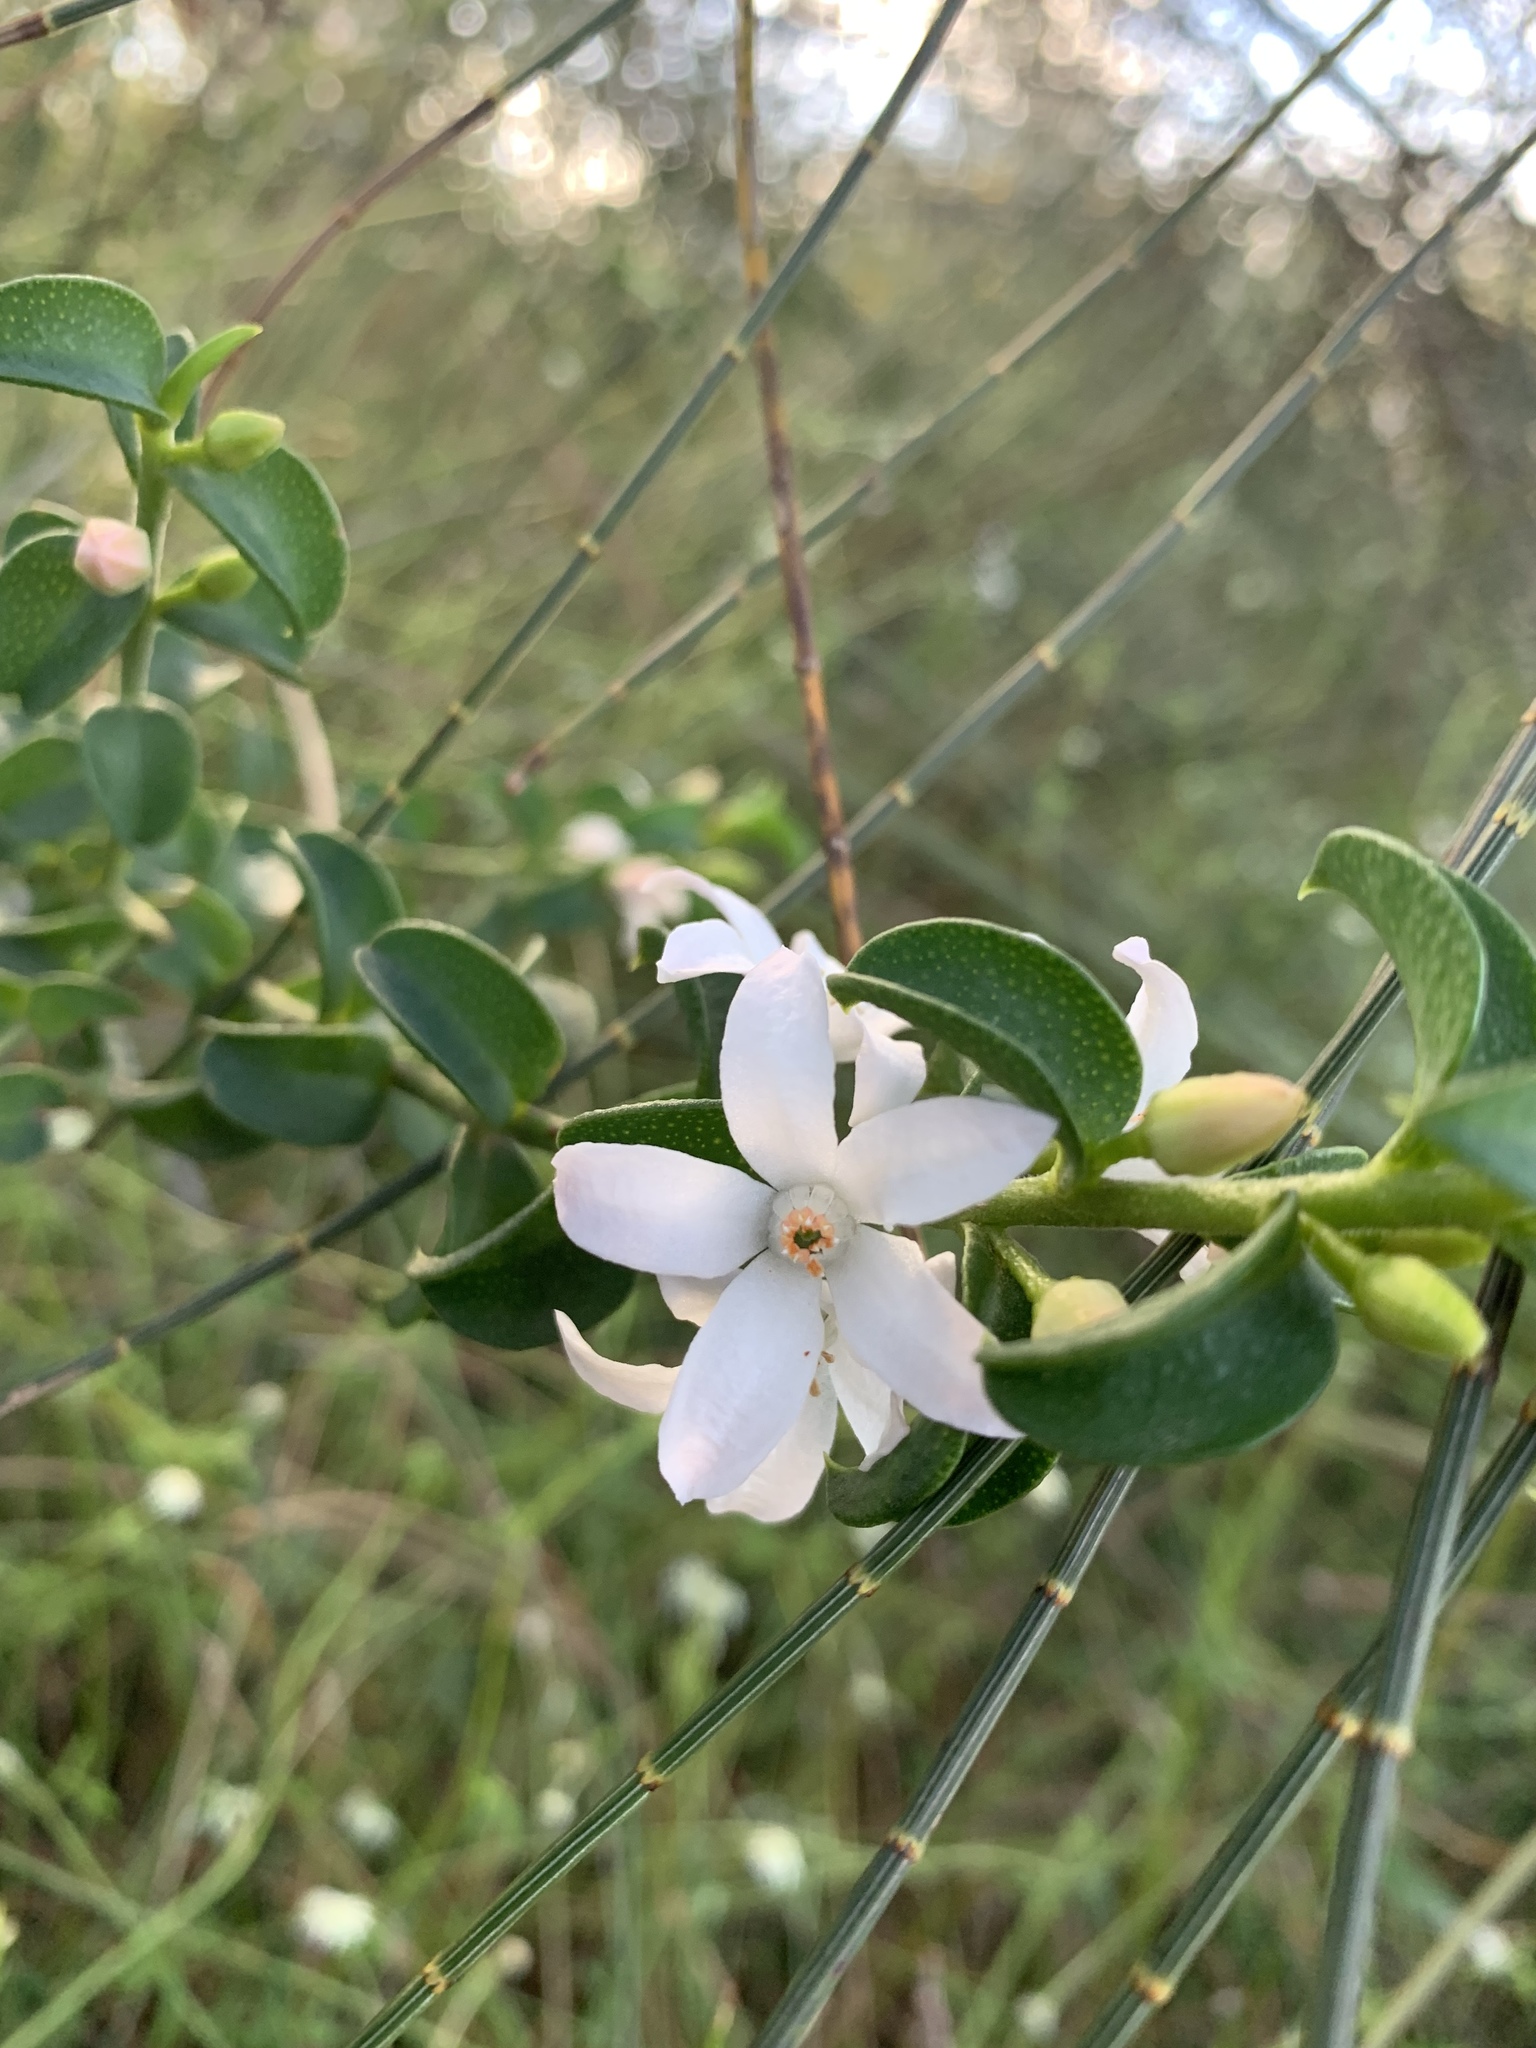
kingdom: Plantae
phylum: Tracheophyta
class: Magnoliopsida
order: Sapindales
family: Rutaceae
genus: Philotheca
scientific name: Philotheca buxifolia
